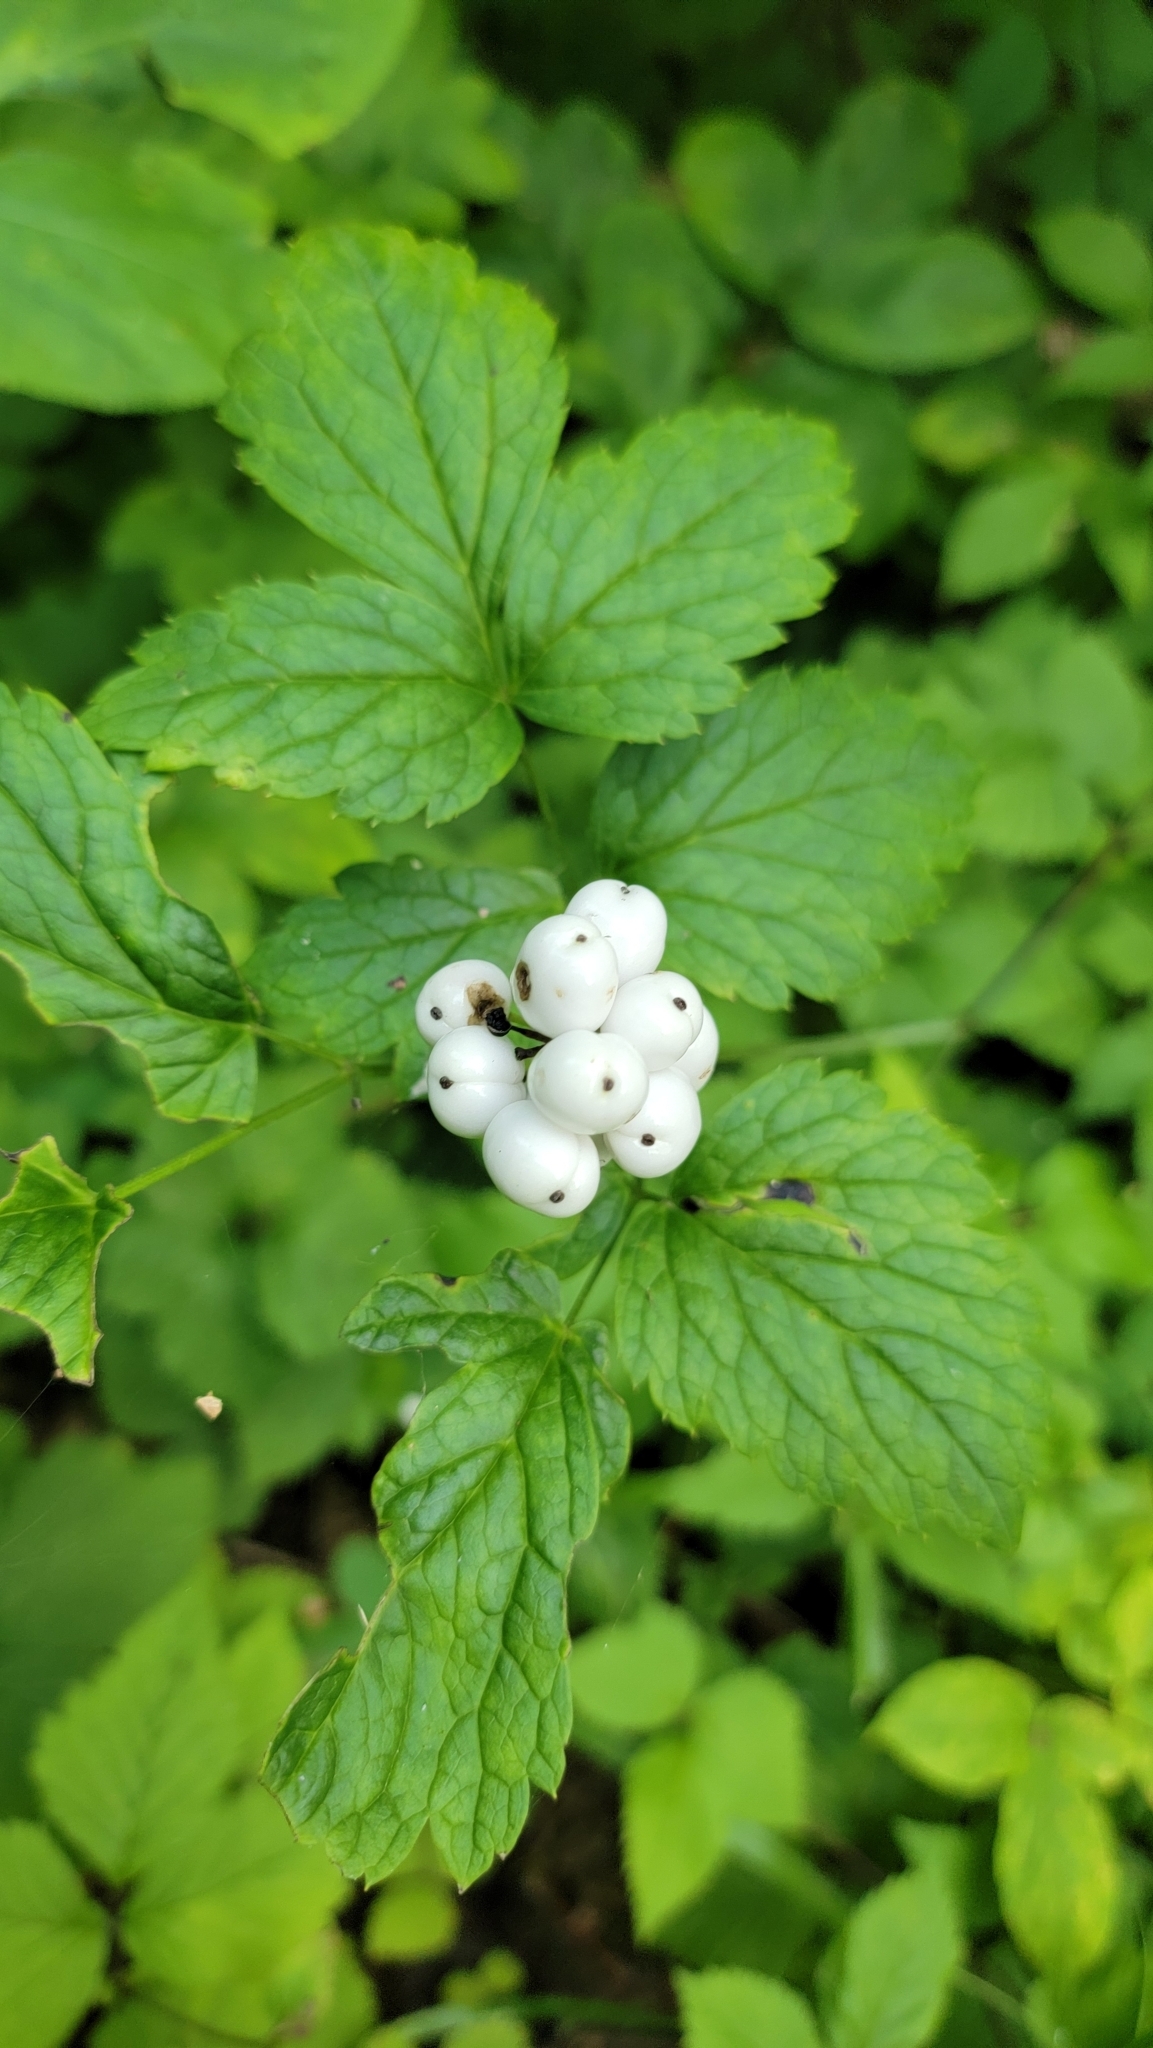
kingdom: Plantae
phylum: Tracheophyta
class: Magnoliopsida
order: Ranunculales
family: Ranunculaceae
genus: Actaea
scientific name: Actaea rubra
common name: Red baneberry
